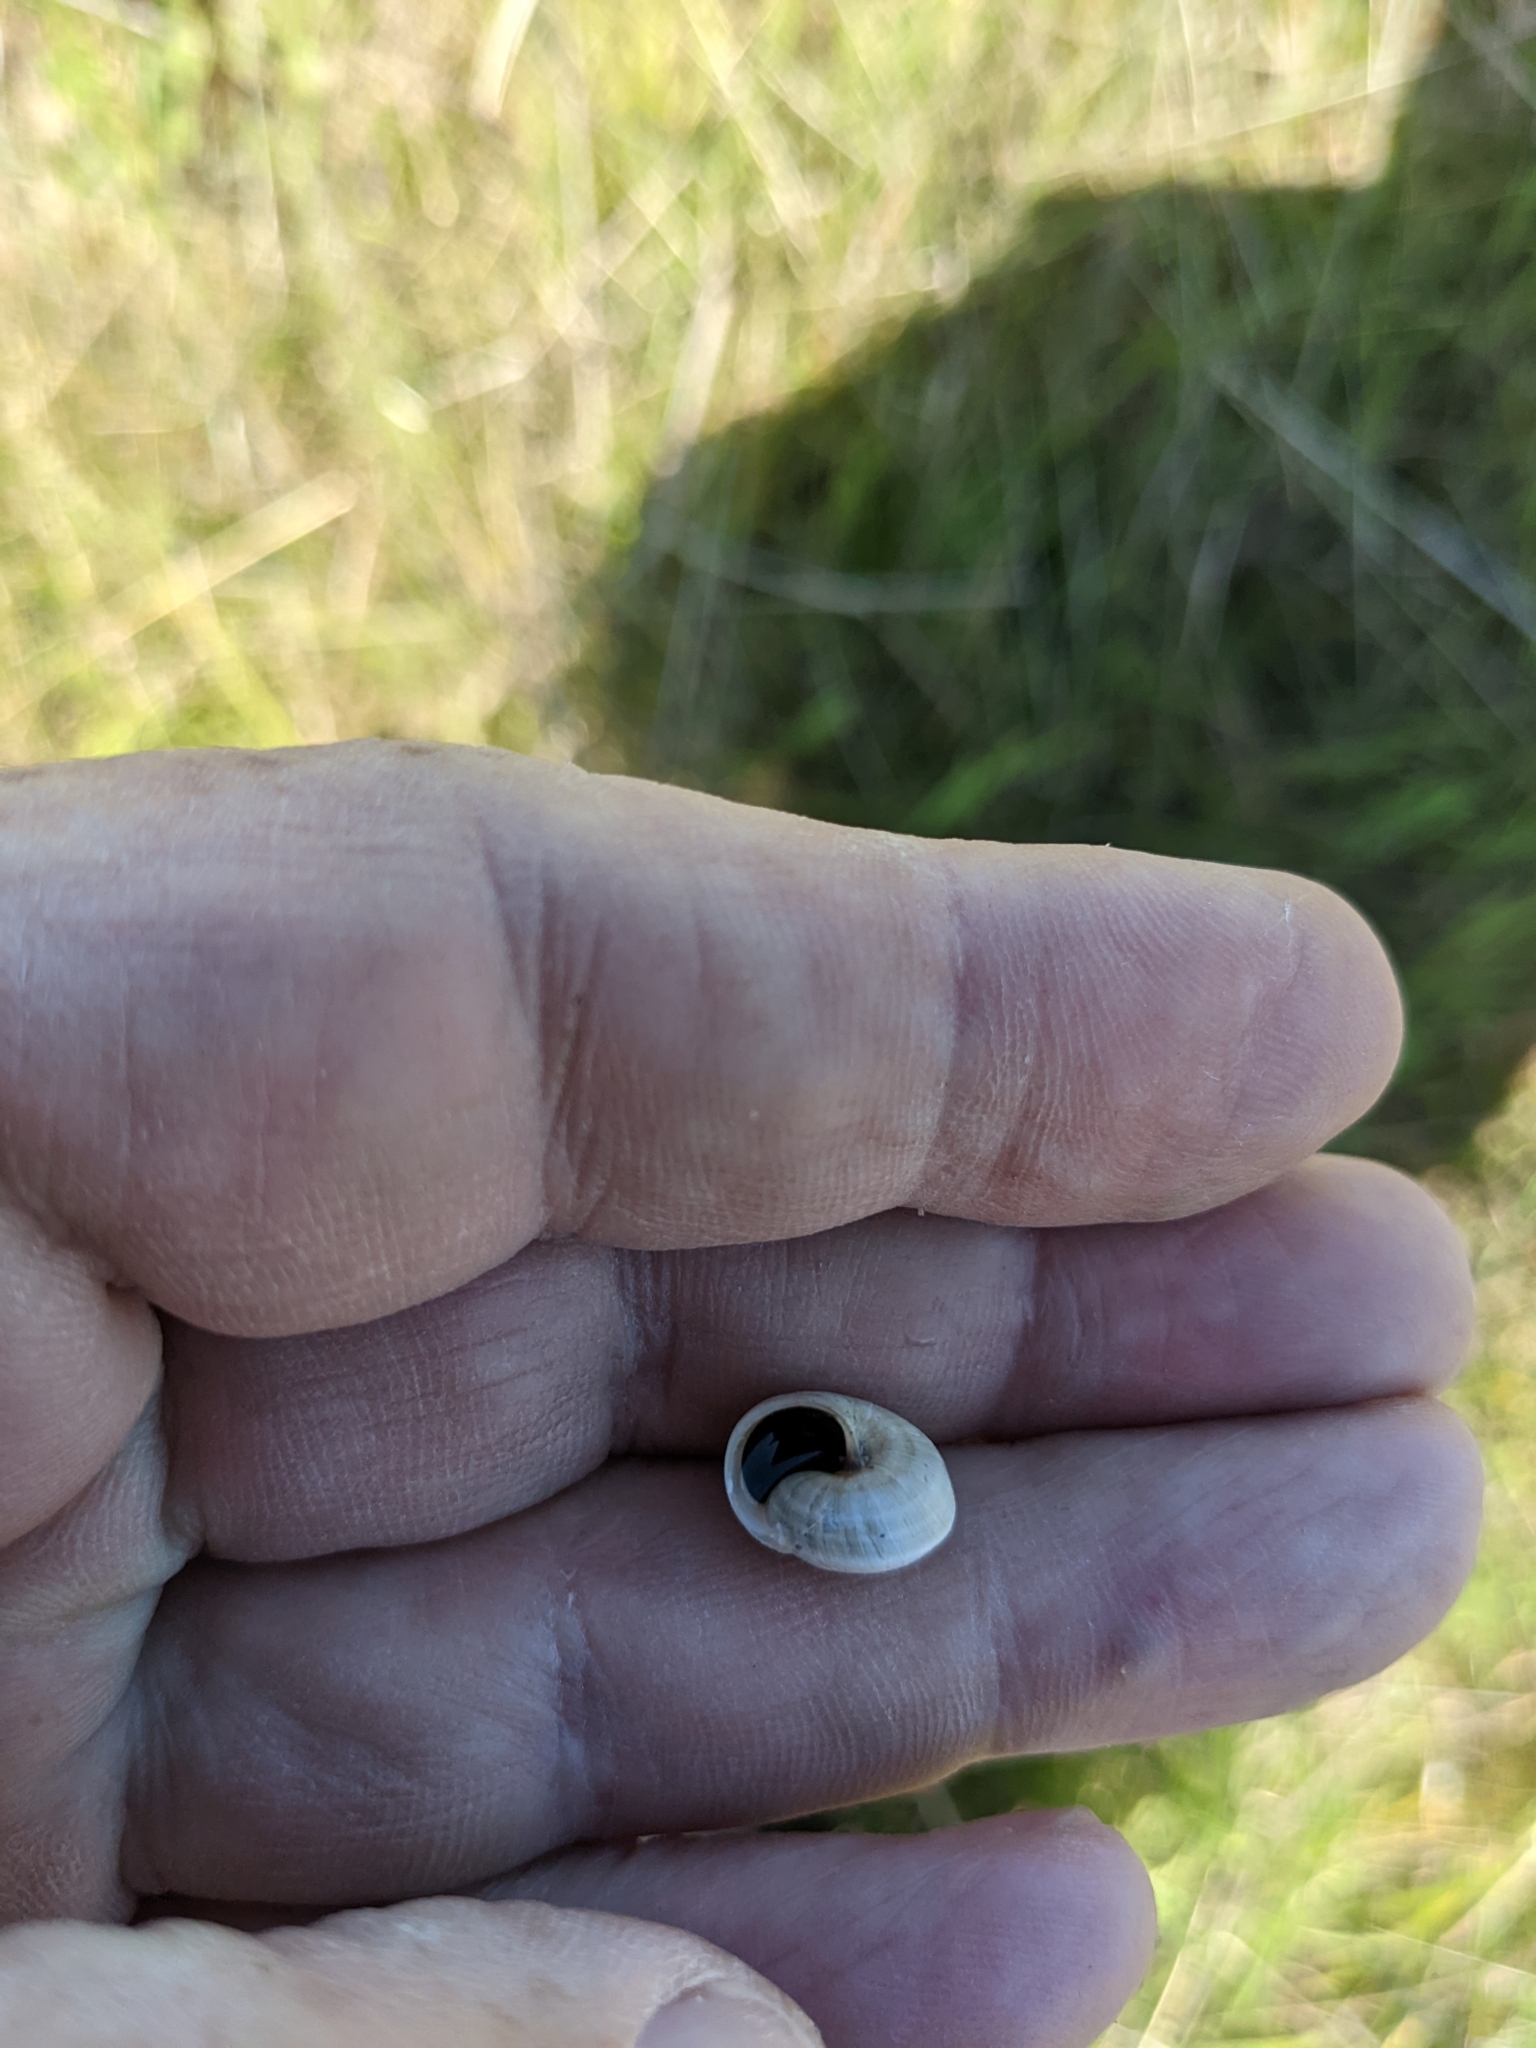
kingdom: Animalia
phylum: Mollusca
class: Gastropoda
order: Stylommatophora
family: Geomitridae
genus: Cernuella
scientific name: Cernuella
